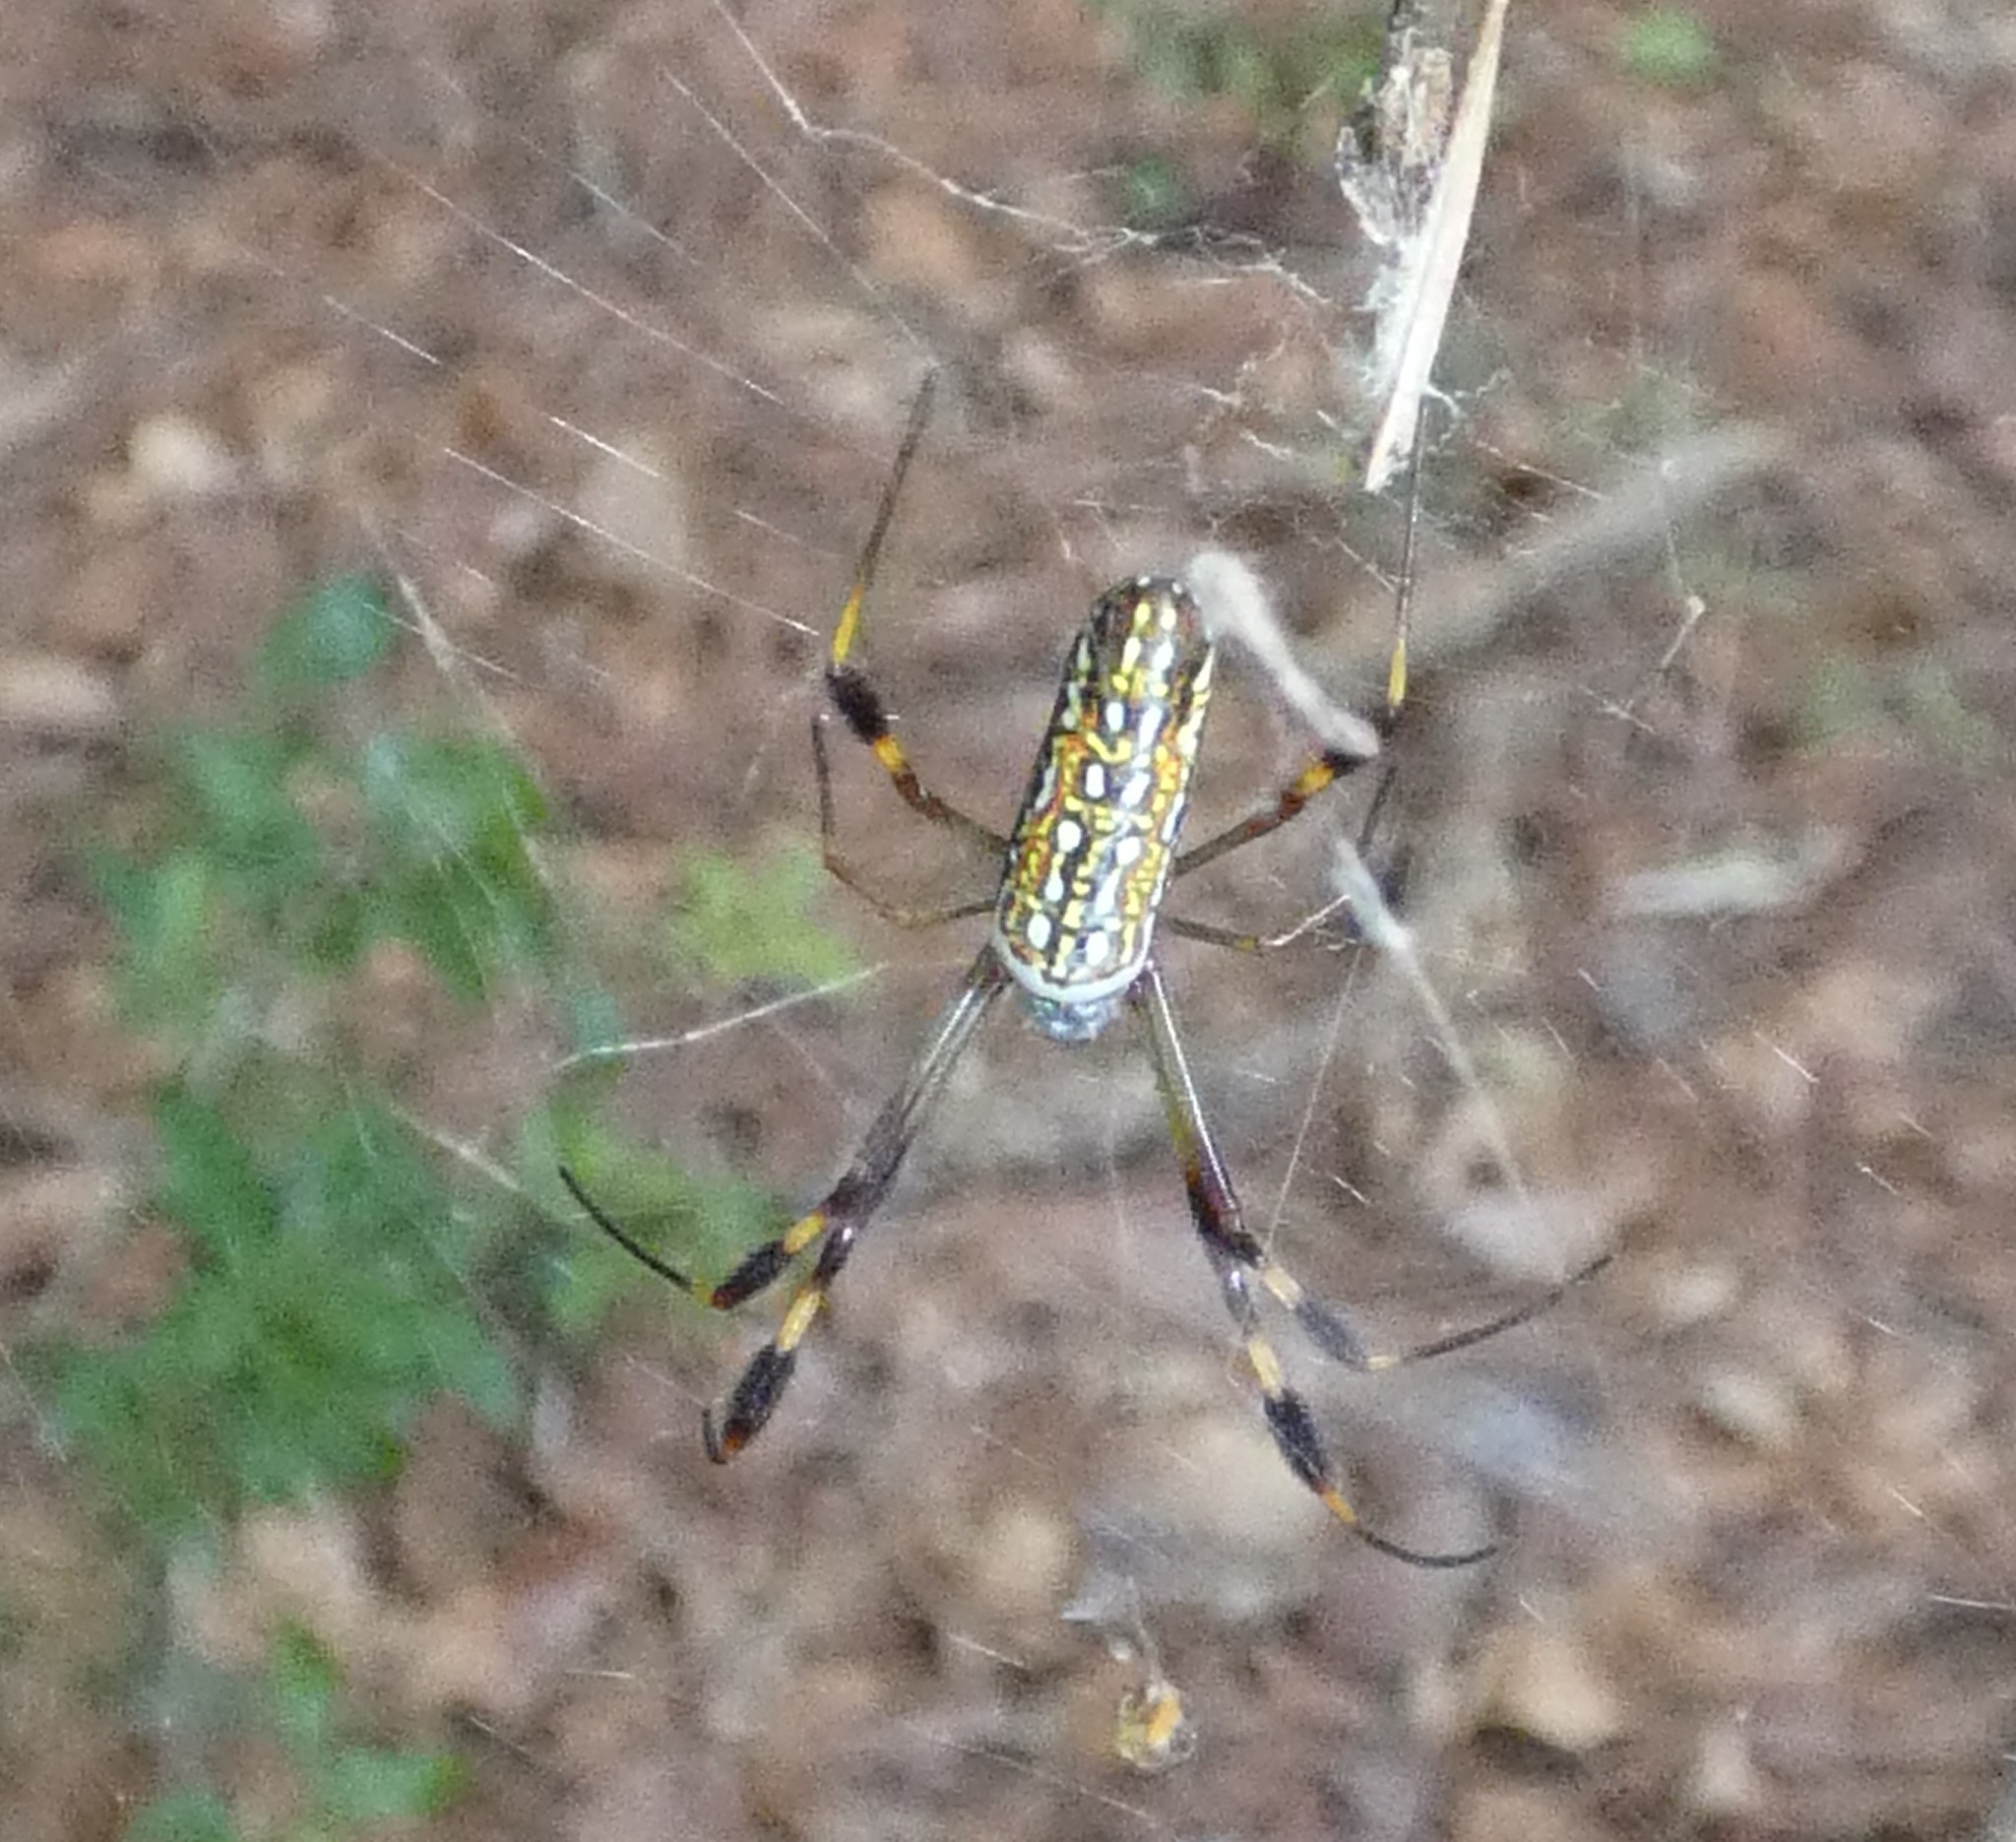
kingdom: Animalia
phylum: Arthropoda
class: Arachnida
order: Araneae
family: Araneidae
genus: Trichonephila
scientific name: Trichonephila clavipes
